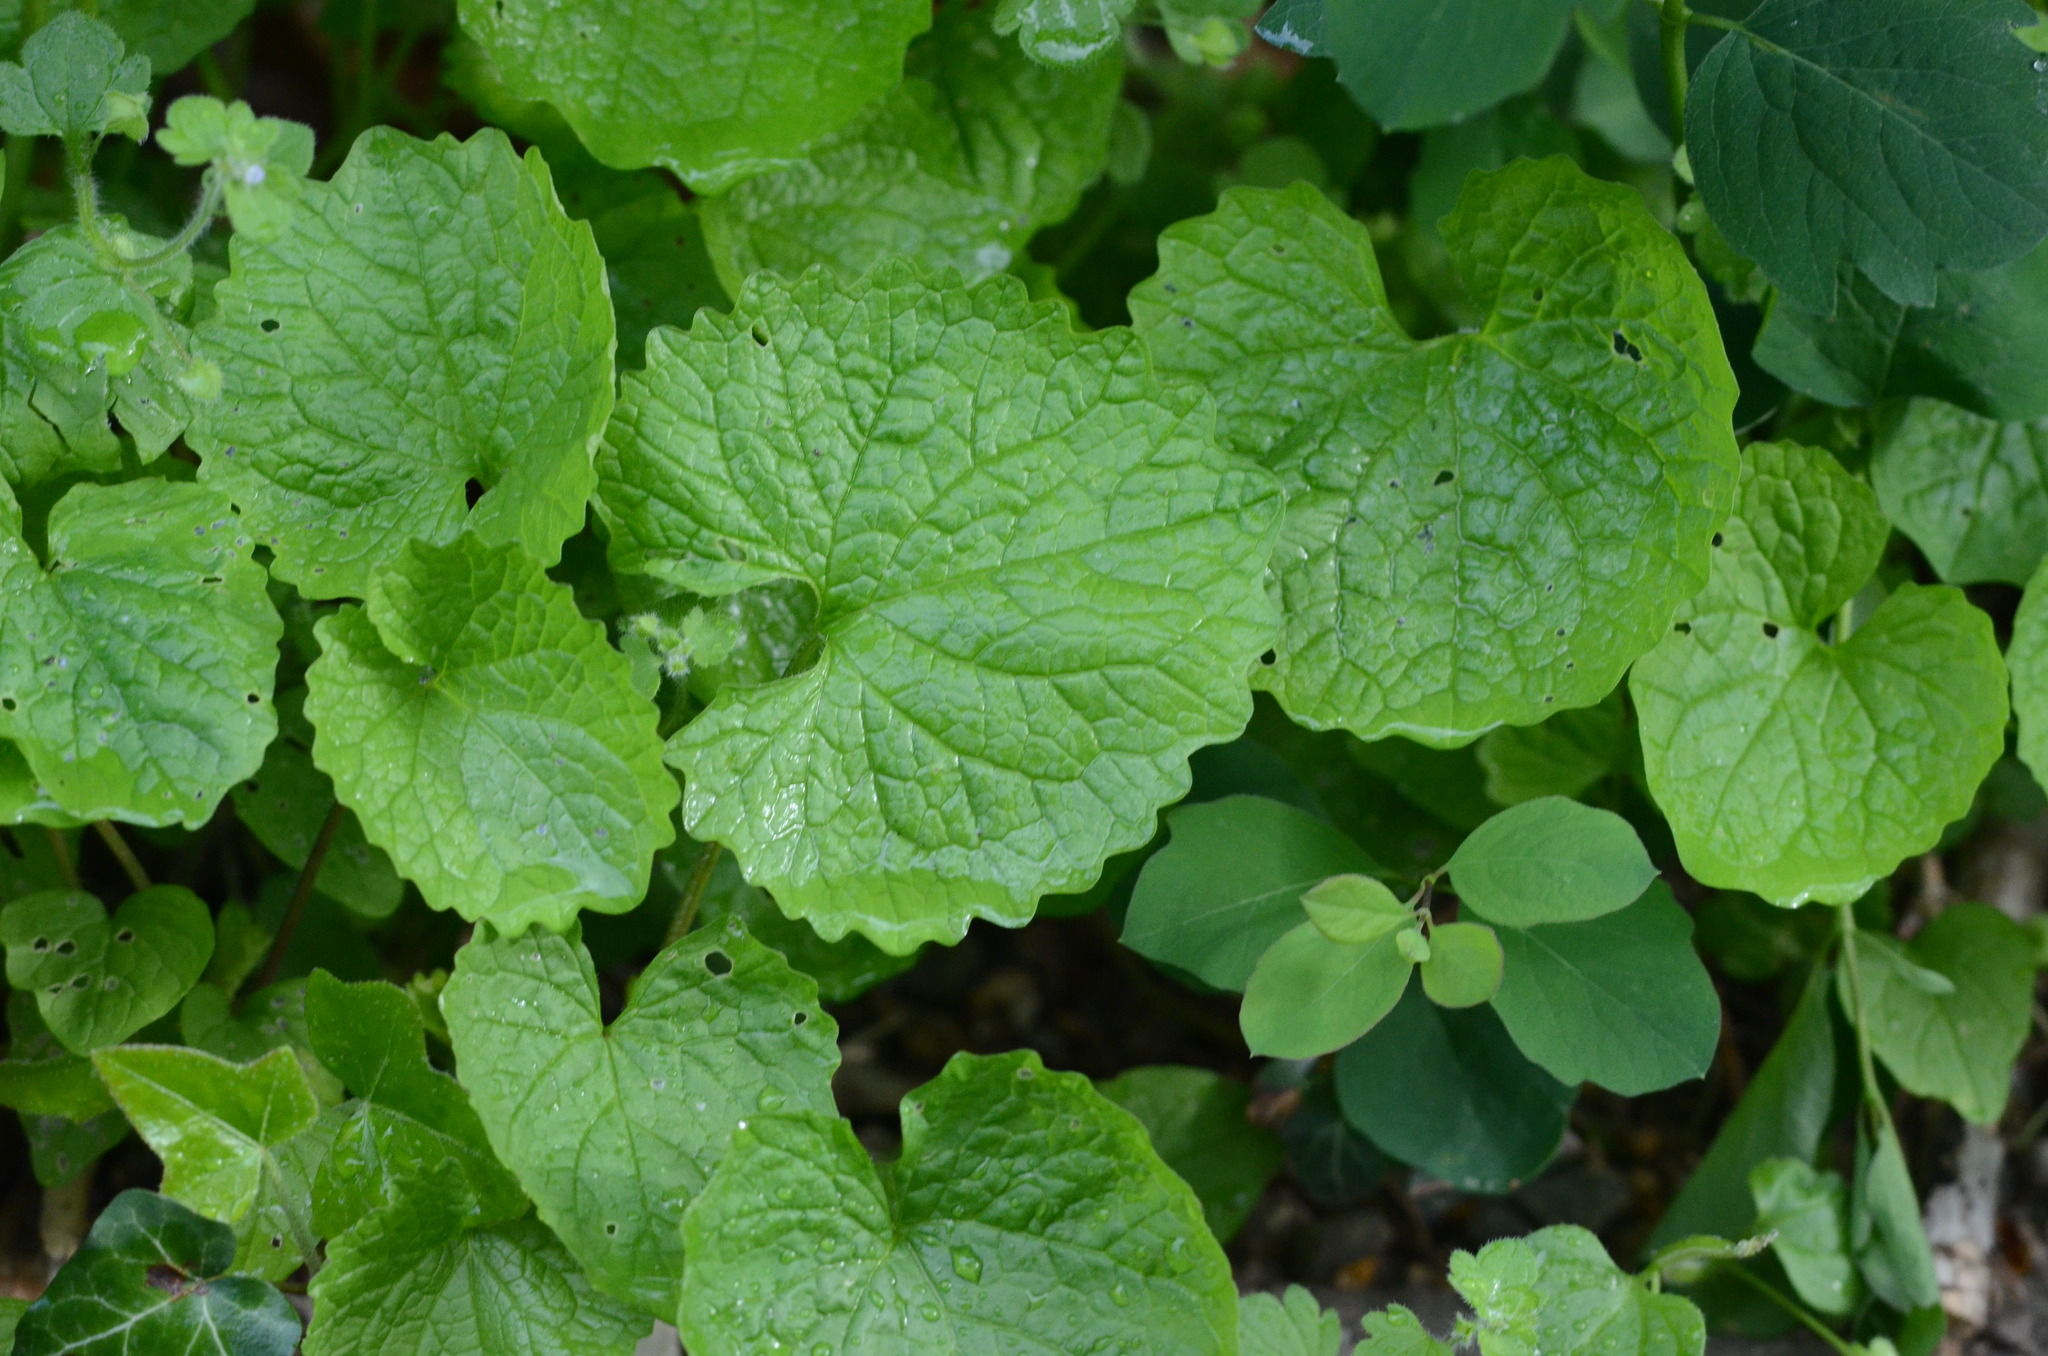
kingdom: Plantae
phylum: Tracheophyta
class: Magnoliopsida
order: Brassicales
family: Brassicaceae
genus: Alliaria
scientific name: Alliaria petiolata
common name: Garlic mustard
